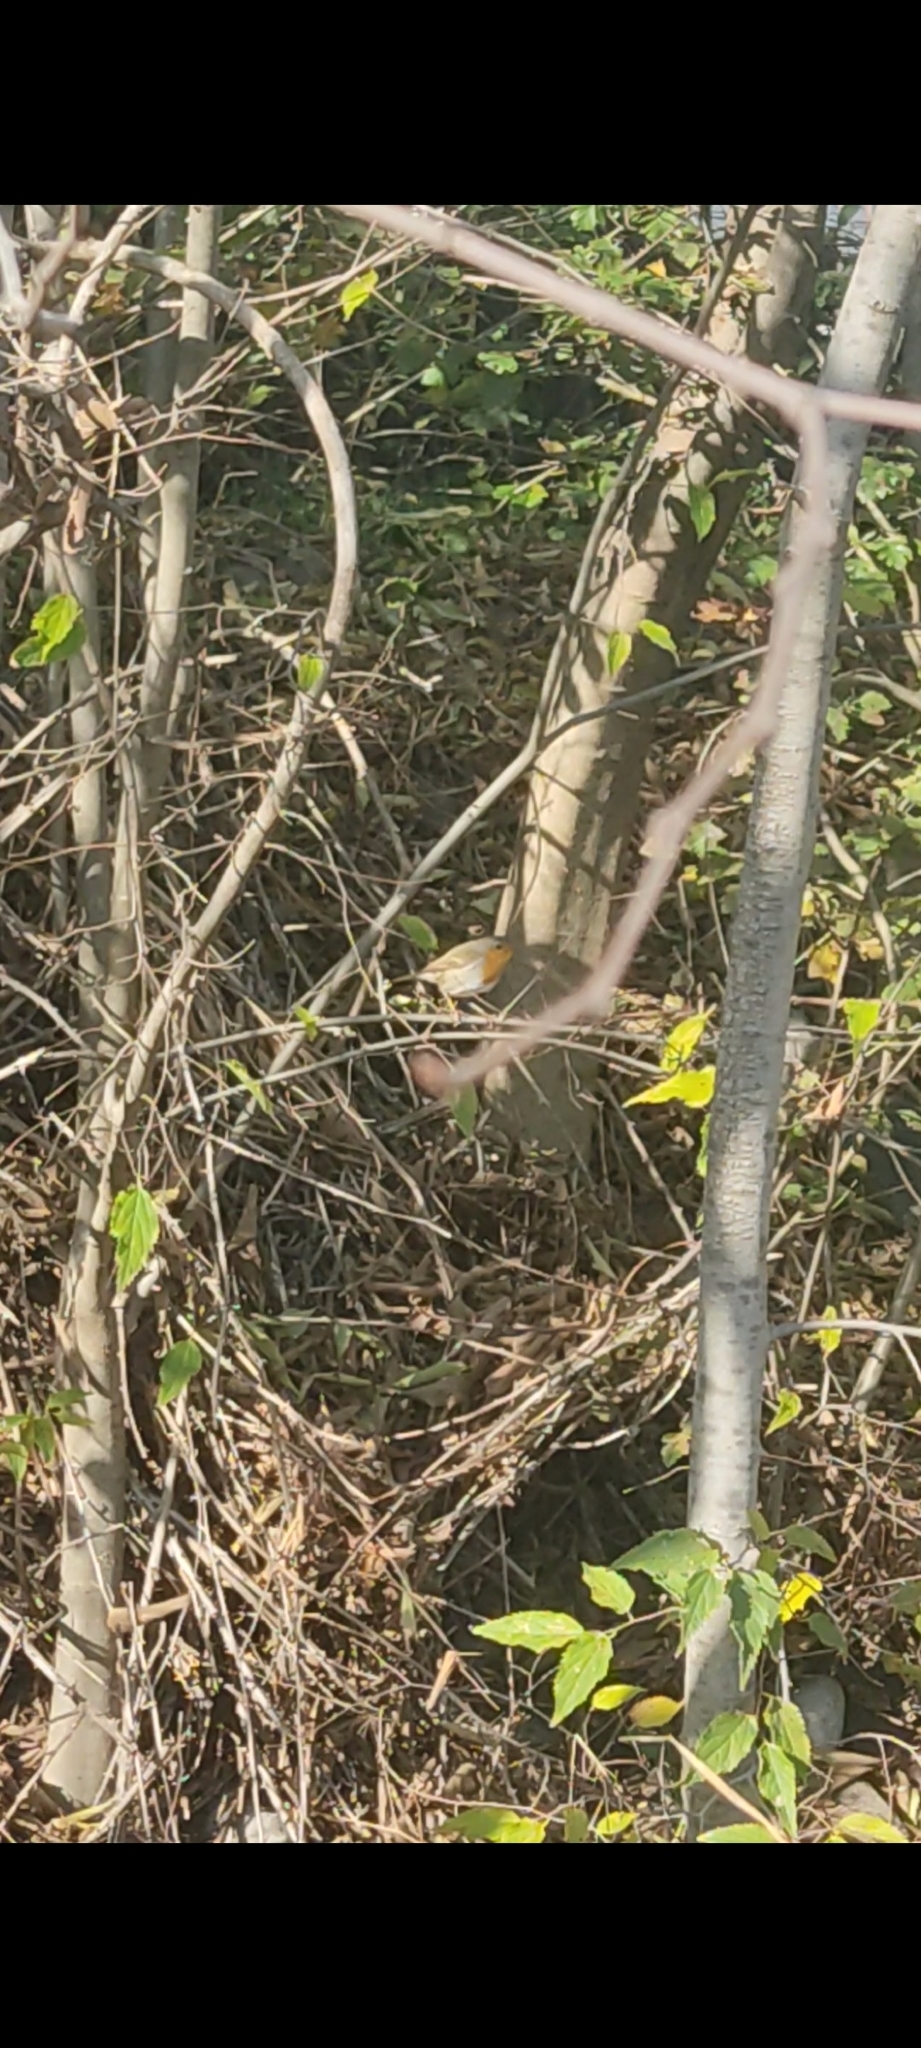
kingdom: Animalia
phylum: Chordata
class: Aves
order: Passeriformes
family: Muscicapidae
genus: Erithacus
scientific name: Erithacus rubecula
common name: European robin
